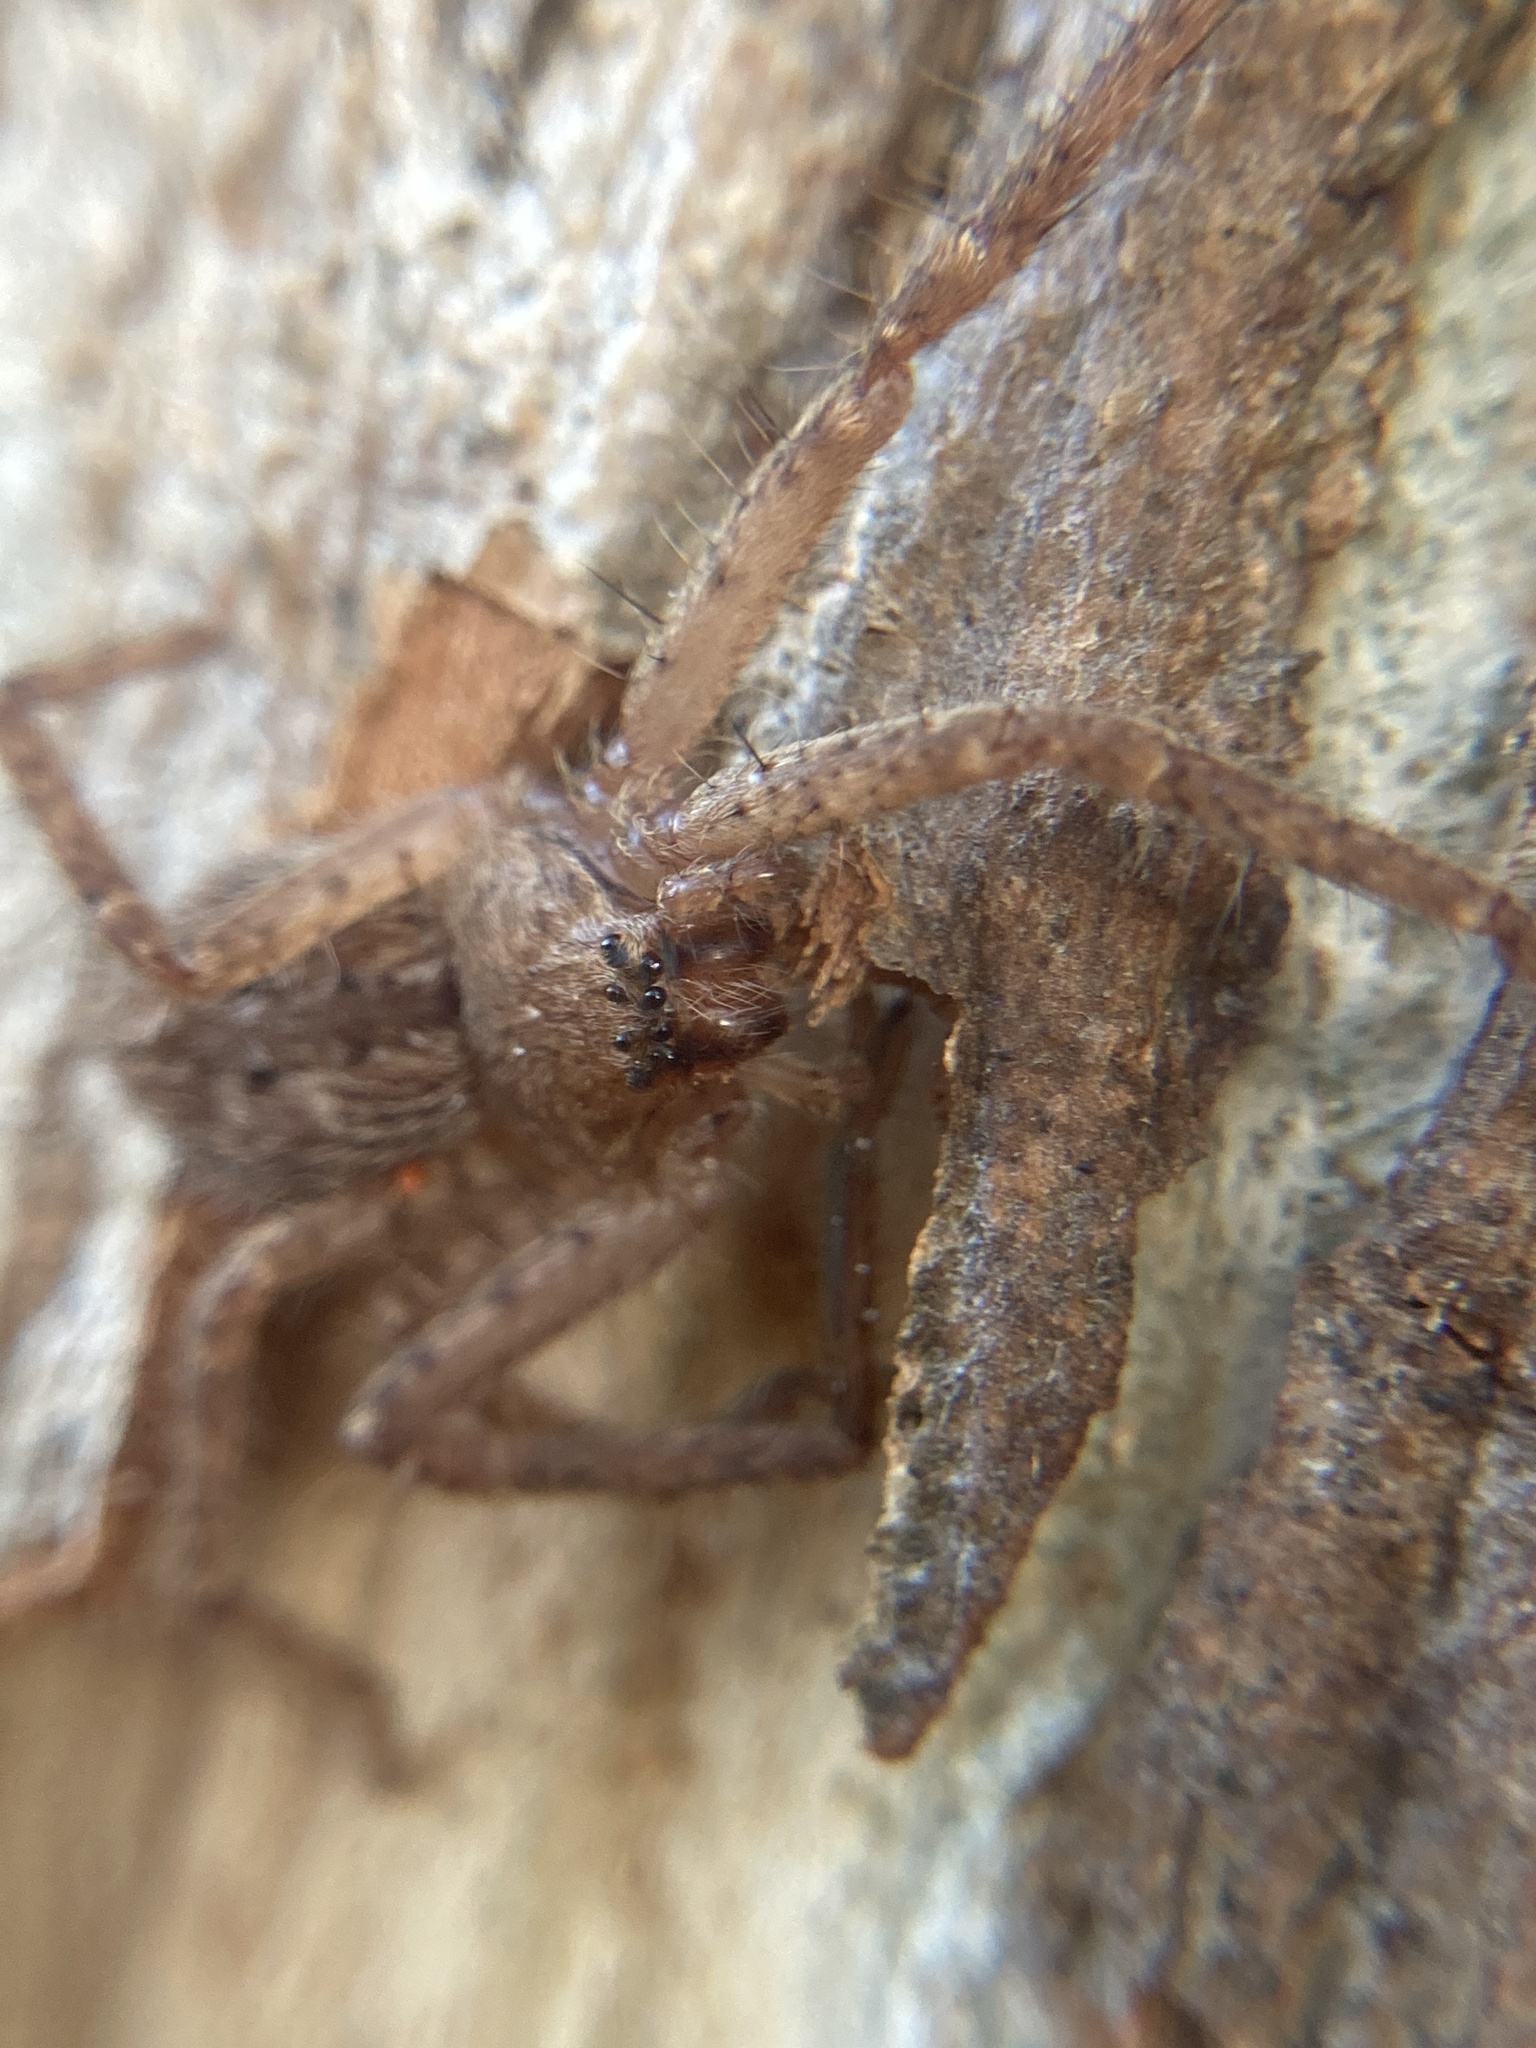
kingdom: Animalia
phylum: Arthropoda
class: Arachnida
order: Araneae
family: Sparassidae
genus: Isopeda
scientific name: Isopeda villosa
